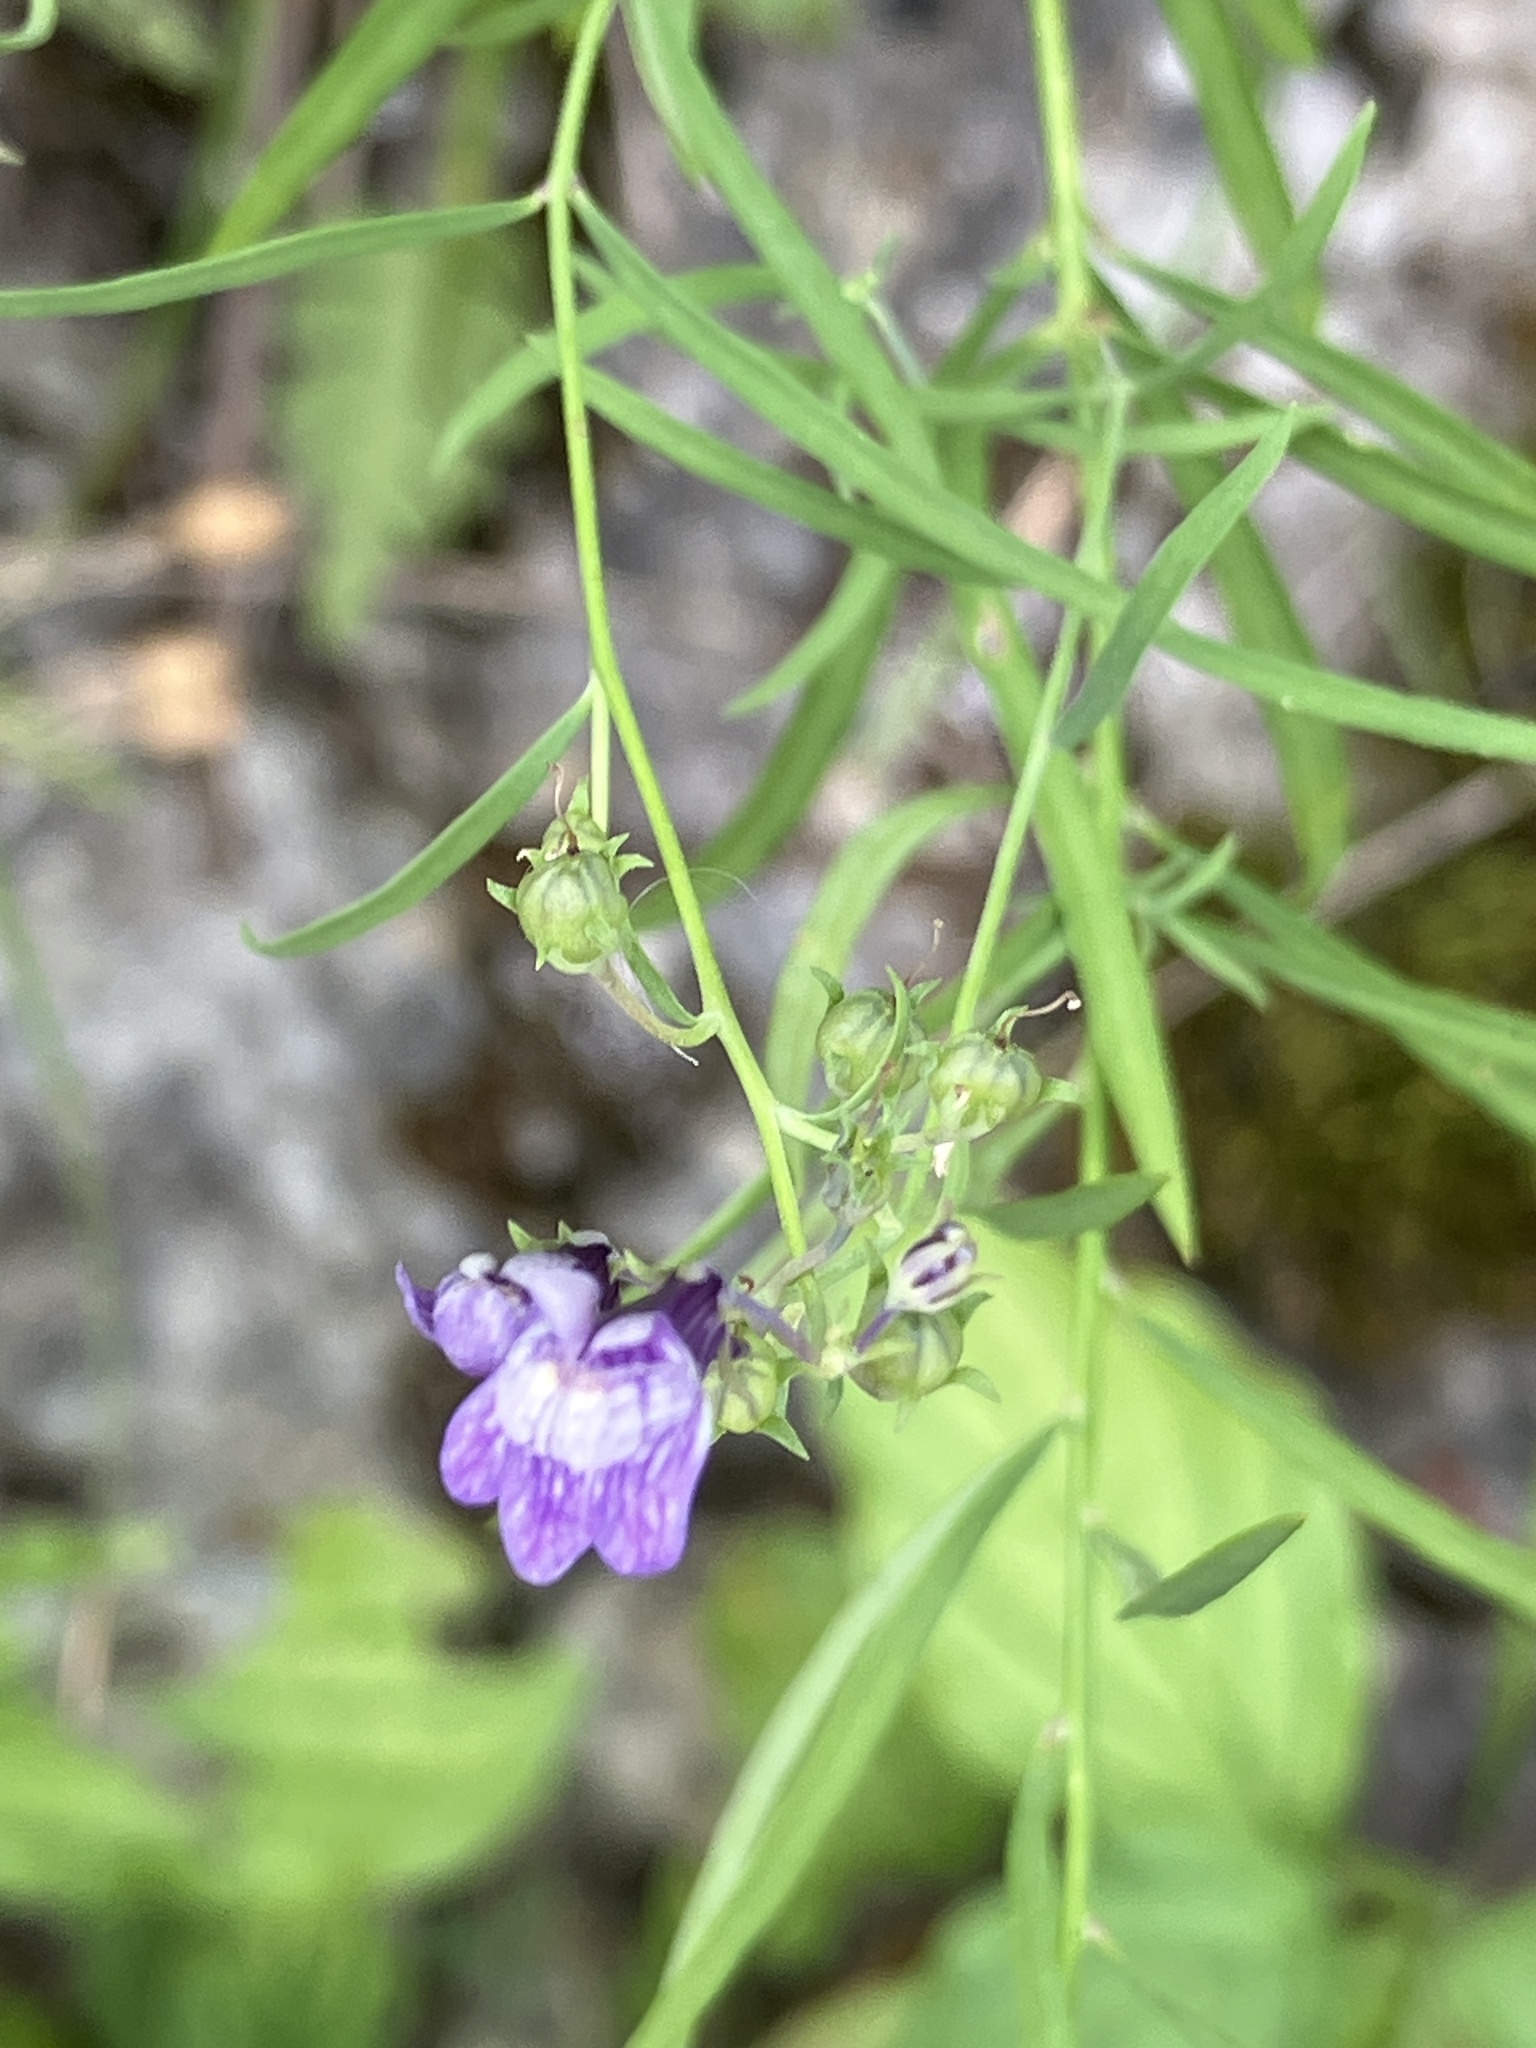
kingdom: Plantae
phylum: Tracheophyta
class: Magnoliopsida
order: Lamiales
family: Plantaginaceae
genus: Linaria
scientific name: Linaria repens
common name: Pale toadflax
